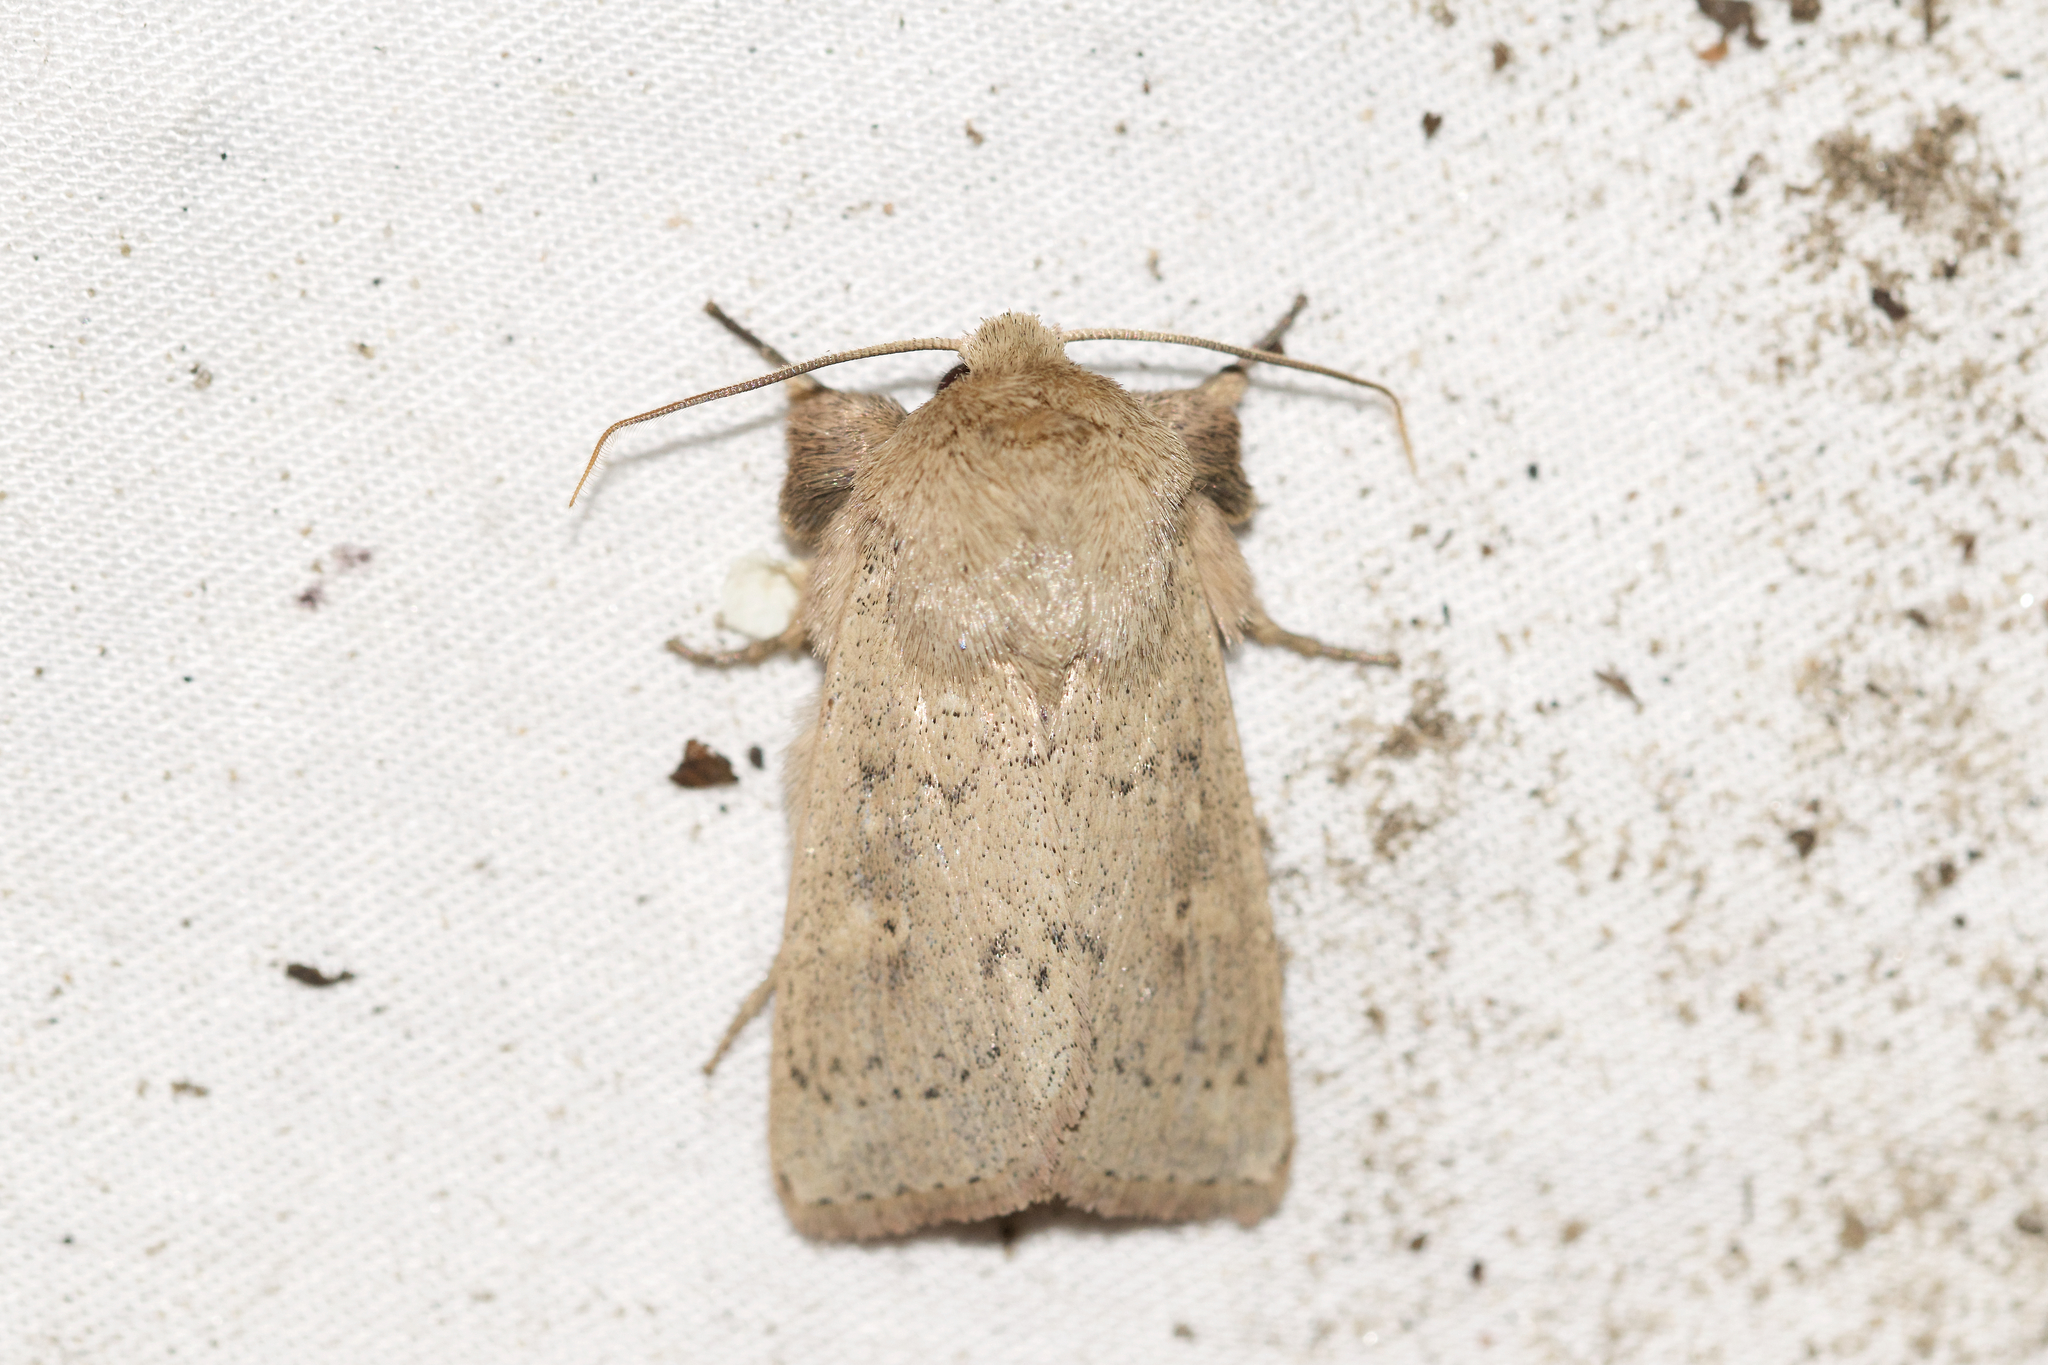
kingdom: Animalia
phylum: Arthropoda
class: Insecta
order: Lepidoptera
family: Noctuidae
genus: Leucania
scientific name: Leucania ursula
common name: Ursula wainscot
